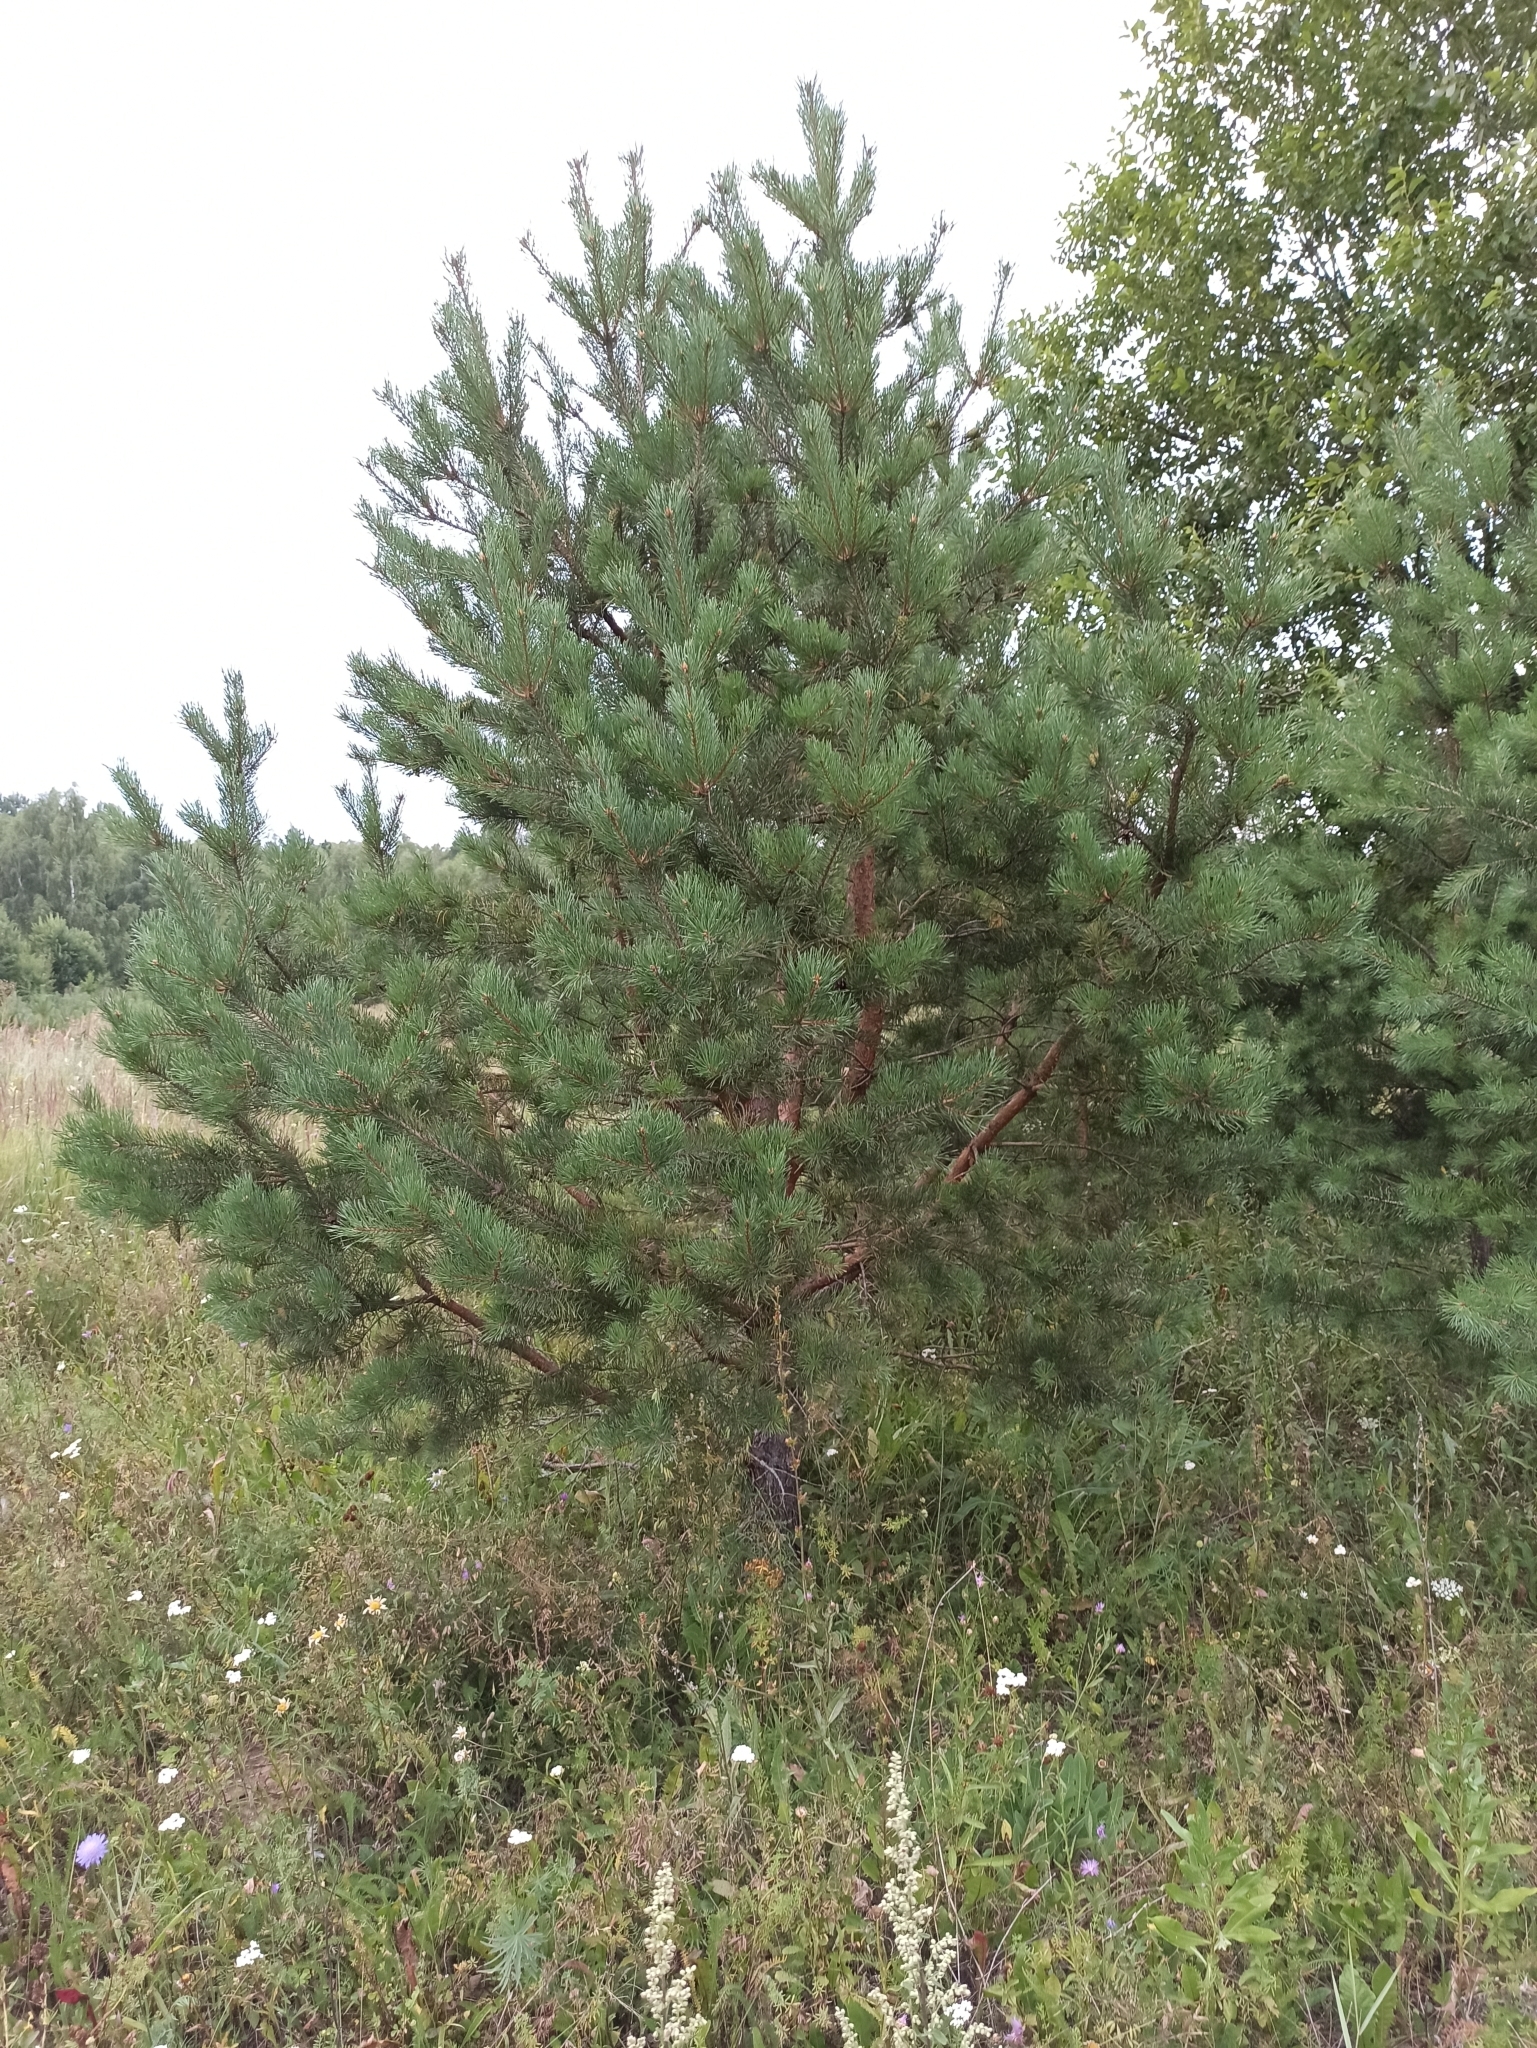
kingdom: Plantae
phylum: Tracheophyta
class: Pinopsida
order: Pinales
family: Pinaceae
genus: Pinus
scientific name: Pinus sylvestris
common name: Scots pine
